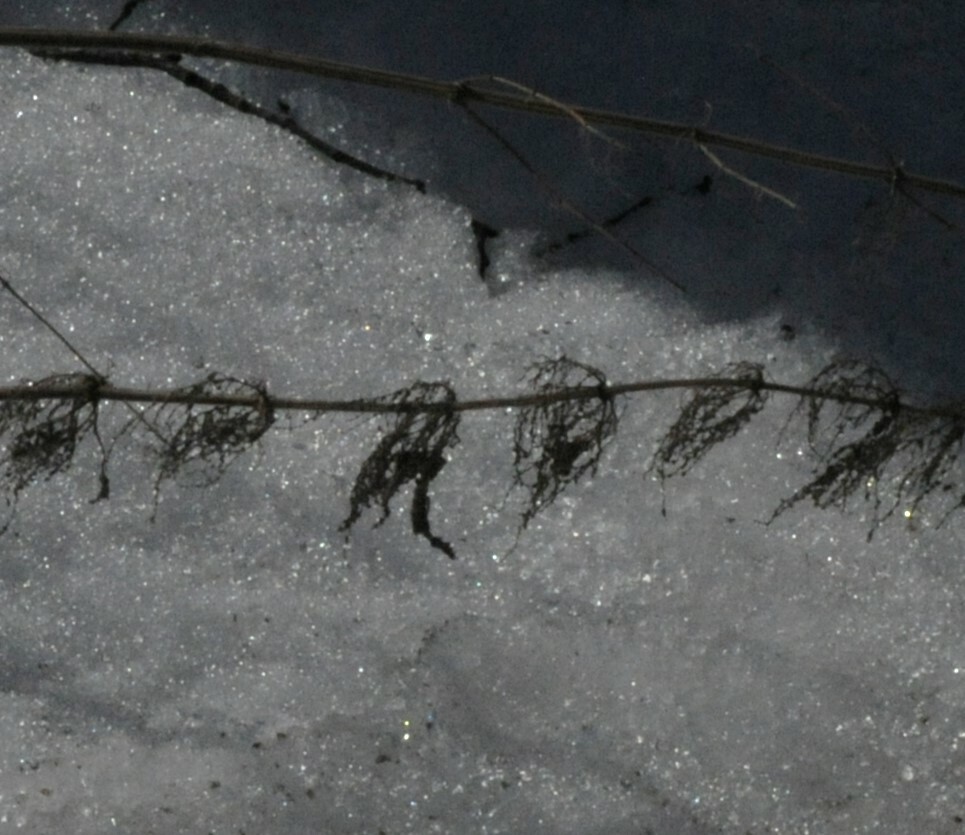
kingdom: Plantae
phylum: Tracheophyta
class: Magnoliopsida
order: Rosales
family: Urticaceae
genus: Urtica
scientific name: Urtica dioica
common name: Common nettle
